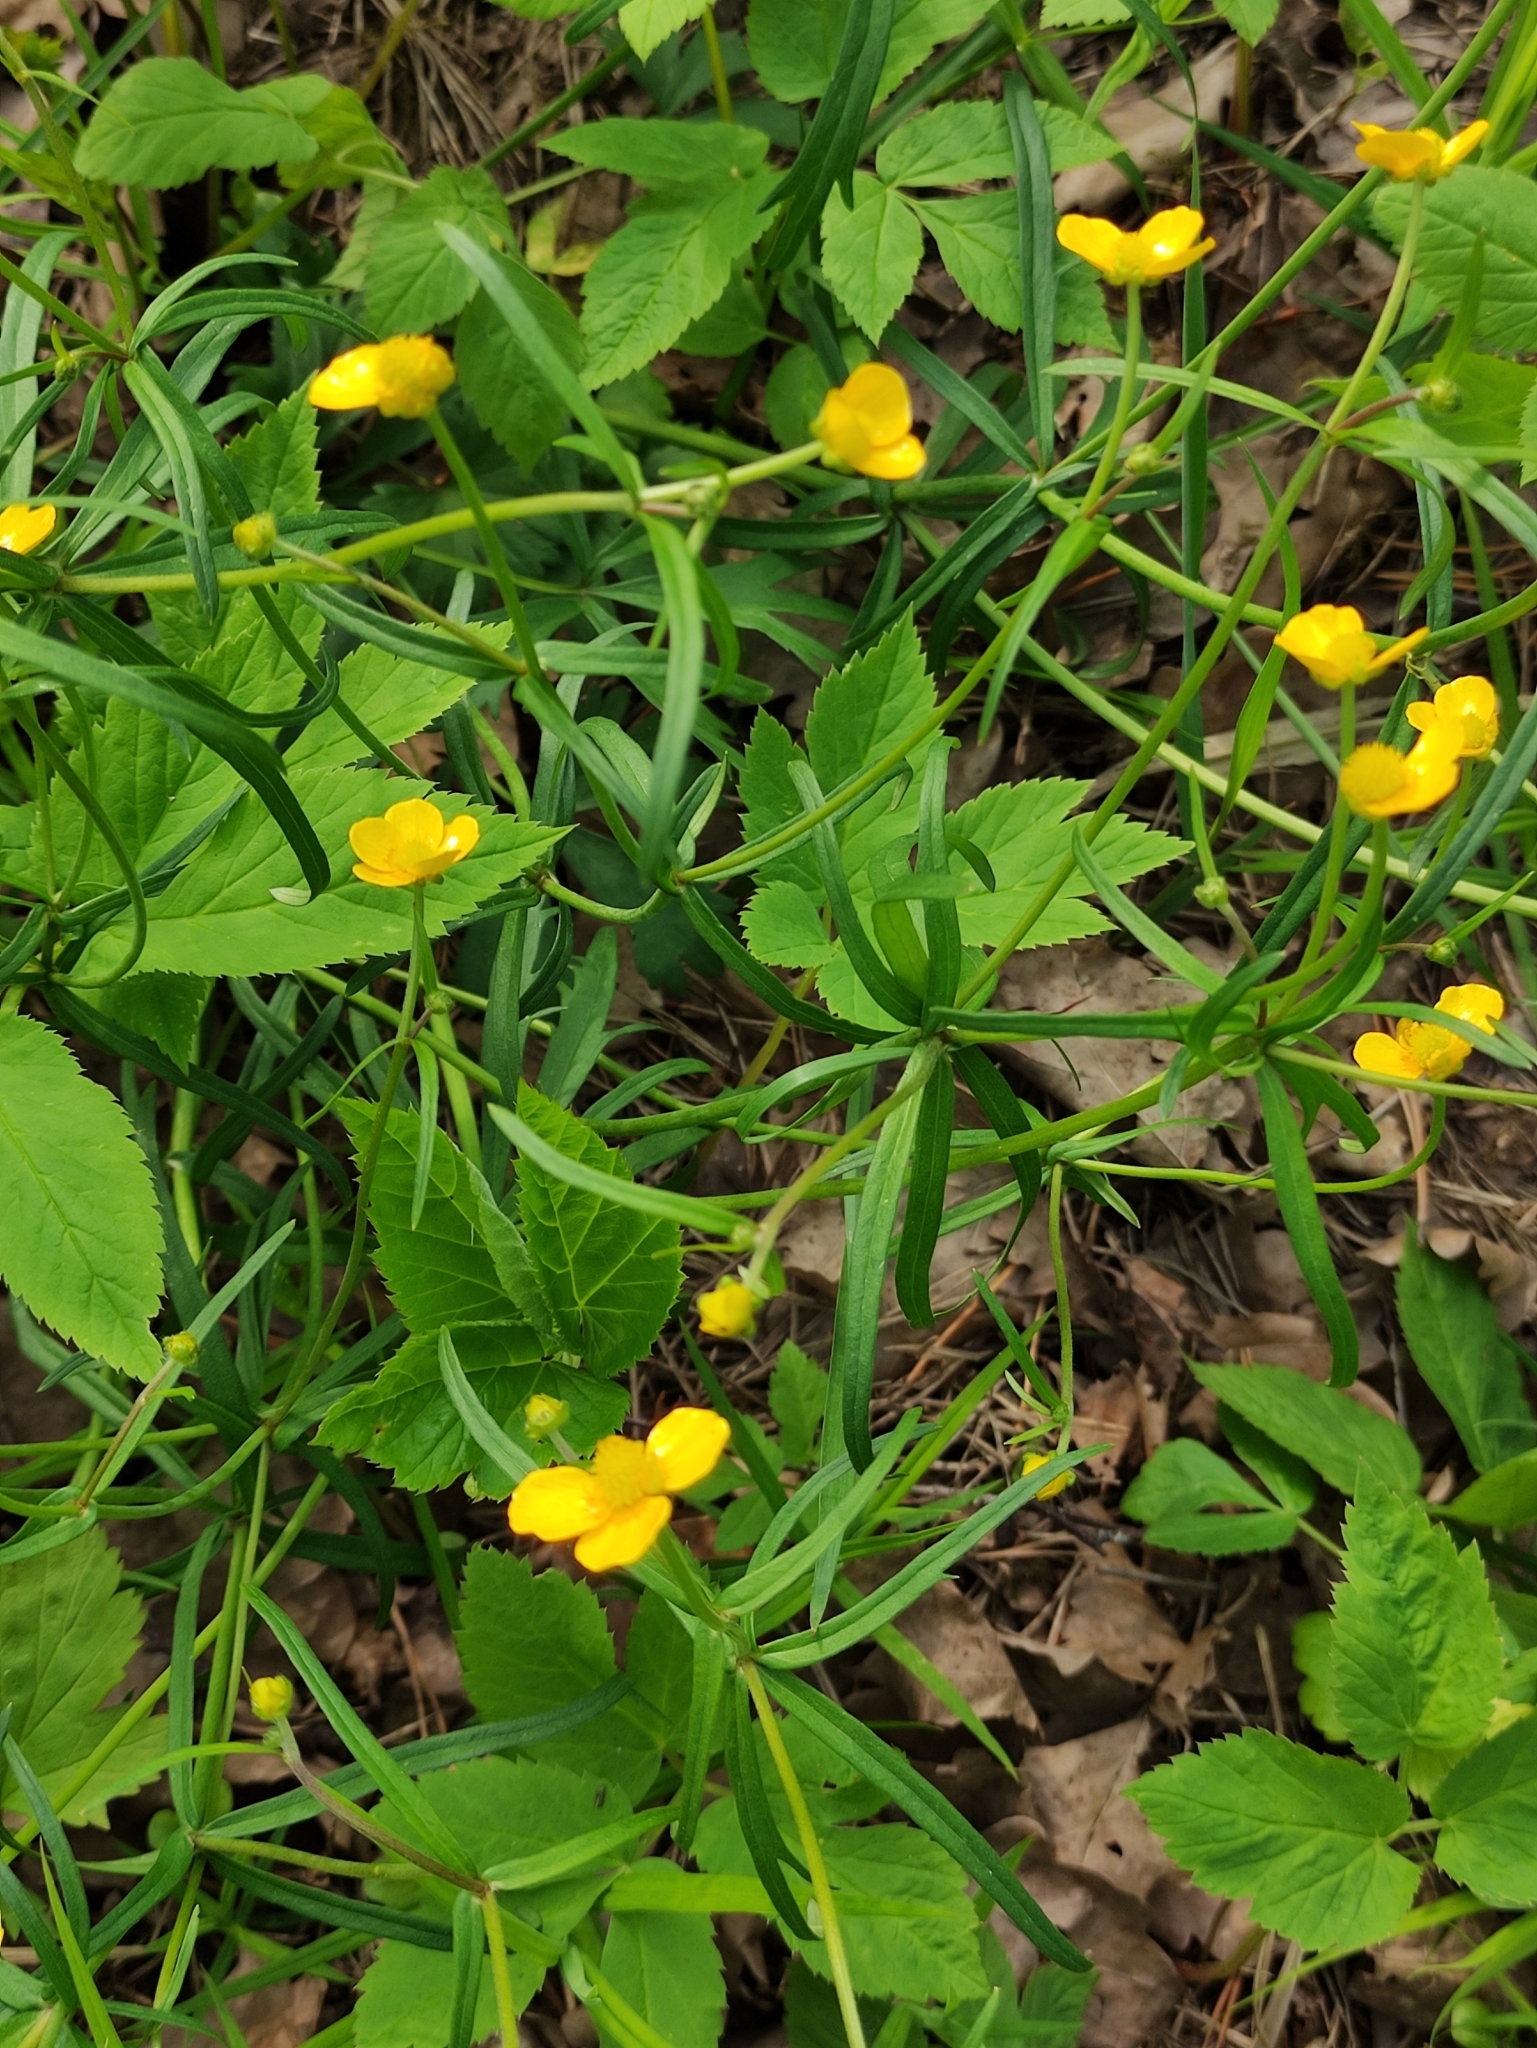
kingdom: Plantae
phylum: Tracheophyta
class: Magnoliopsida
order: Ranunculales
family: Ranunculaceae
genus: Ranunculus
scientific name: Ranunculus auricomus
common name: Goldilocks buttercup
